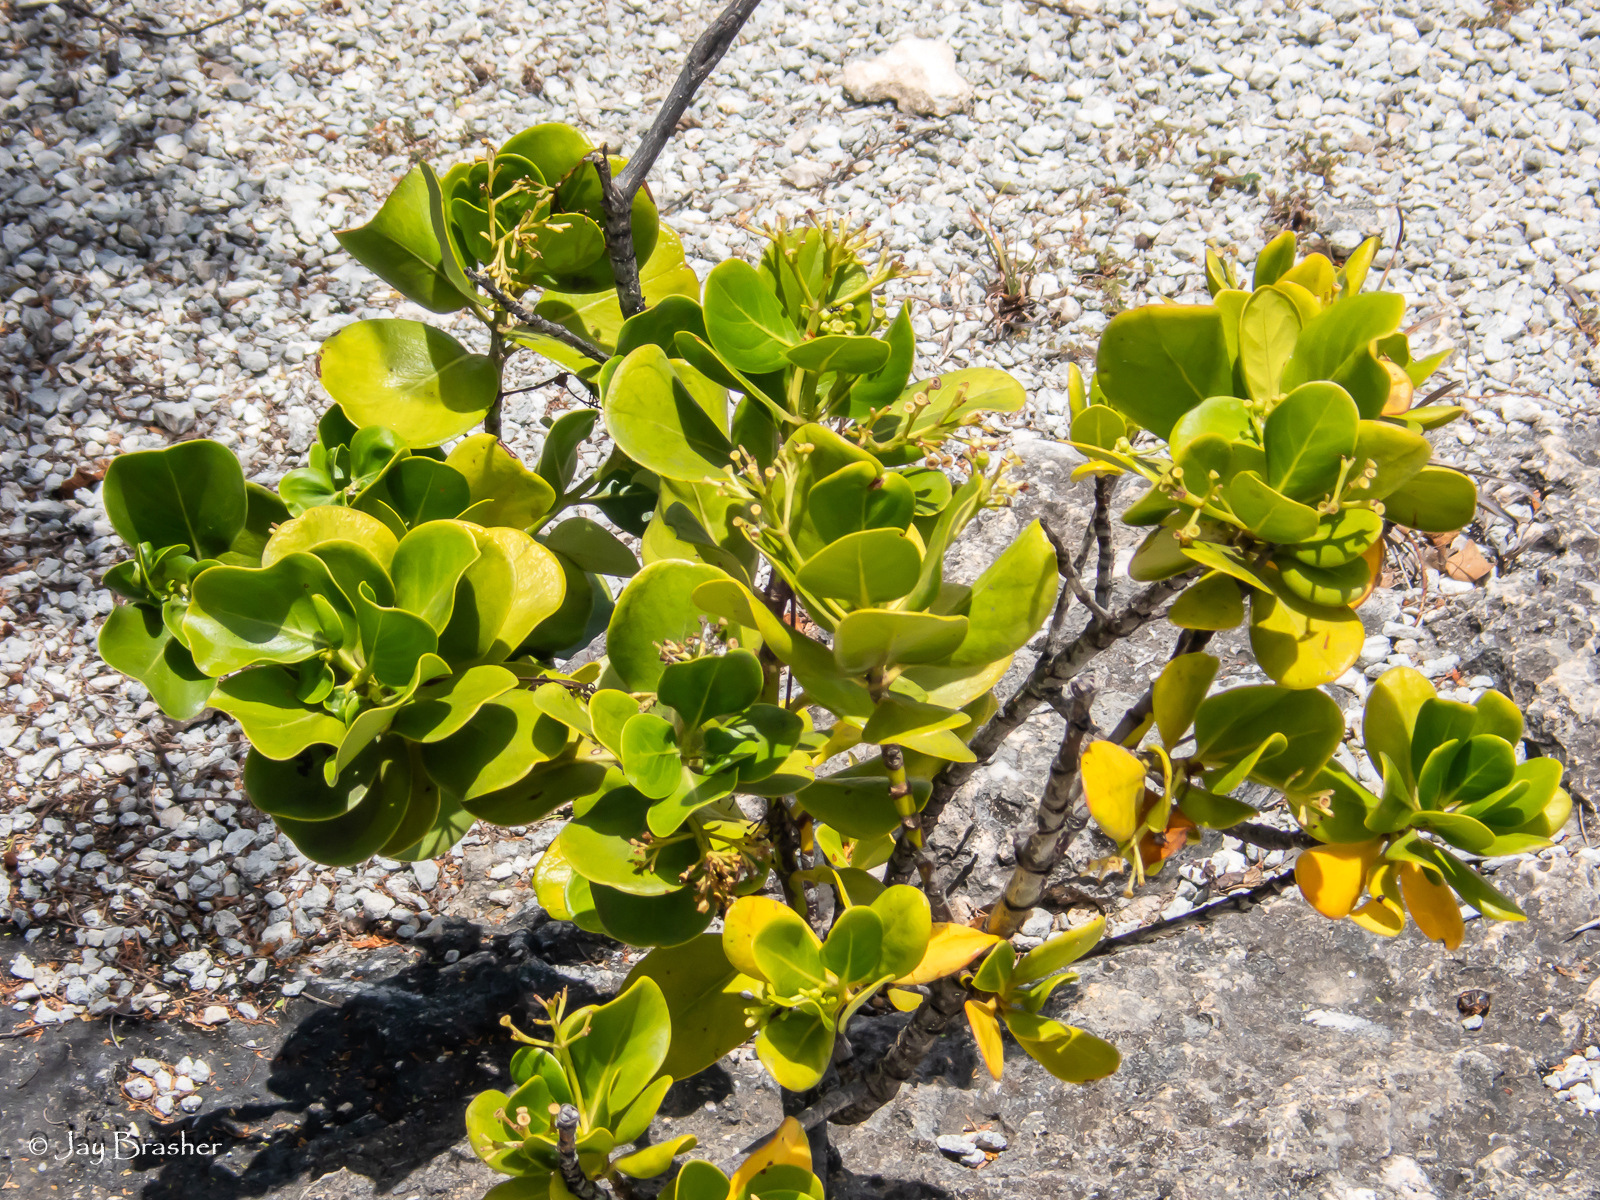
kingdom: Plantae
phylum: Tracheophyta
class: Magnoliopsida
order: Gentianales
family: Rubiaceae
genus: Erithalis
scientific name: Erithalis fruticosa
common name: Candlewood
